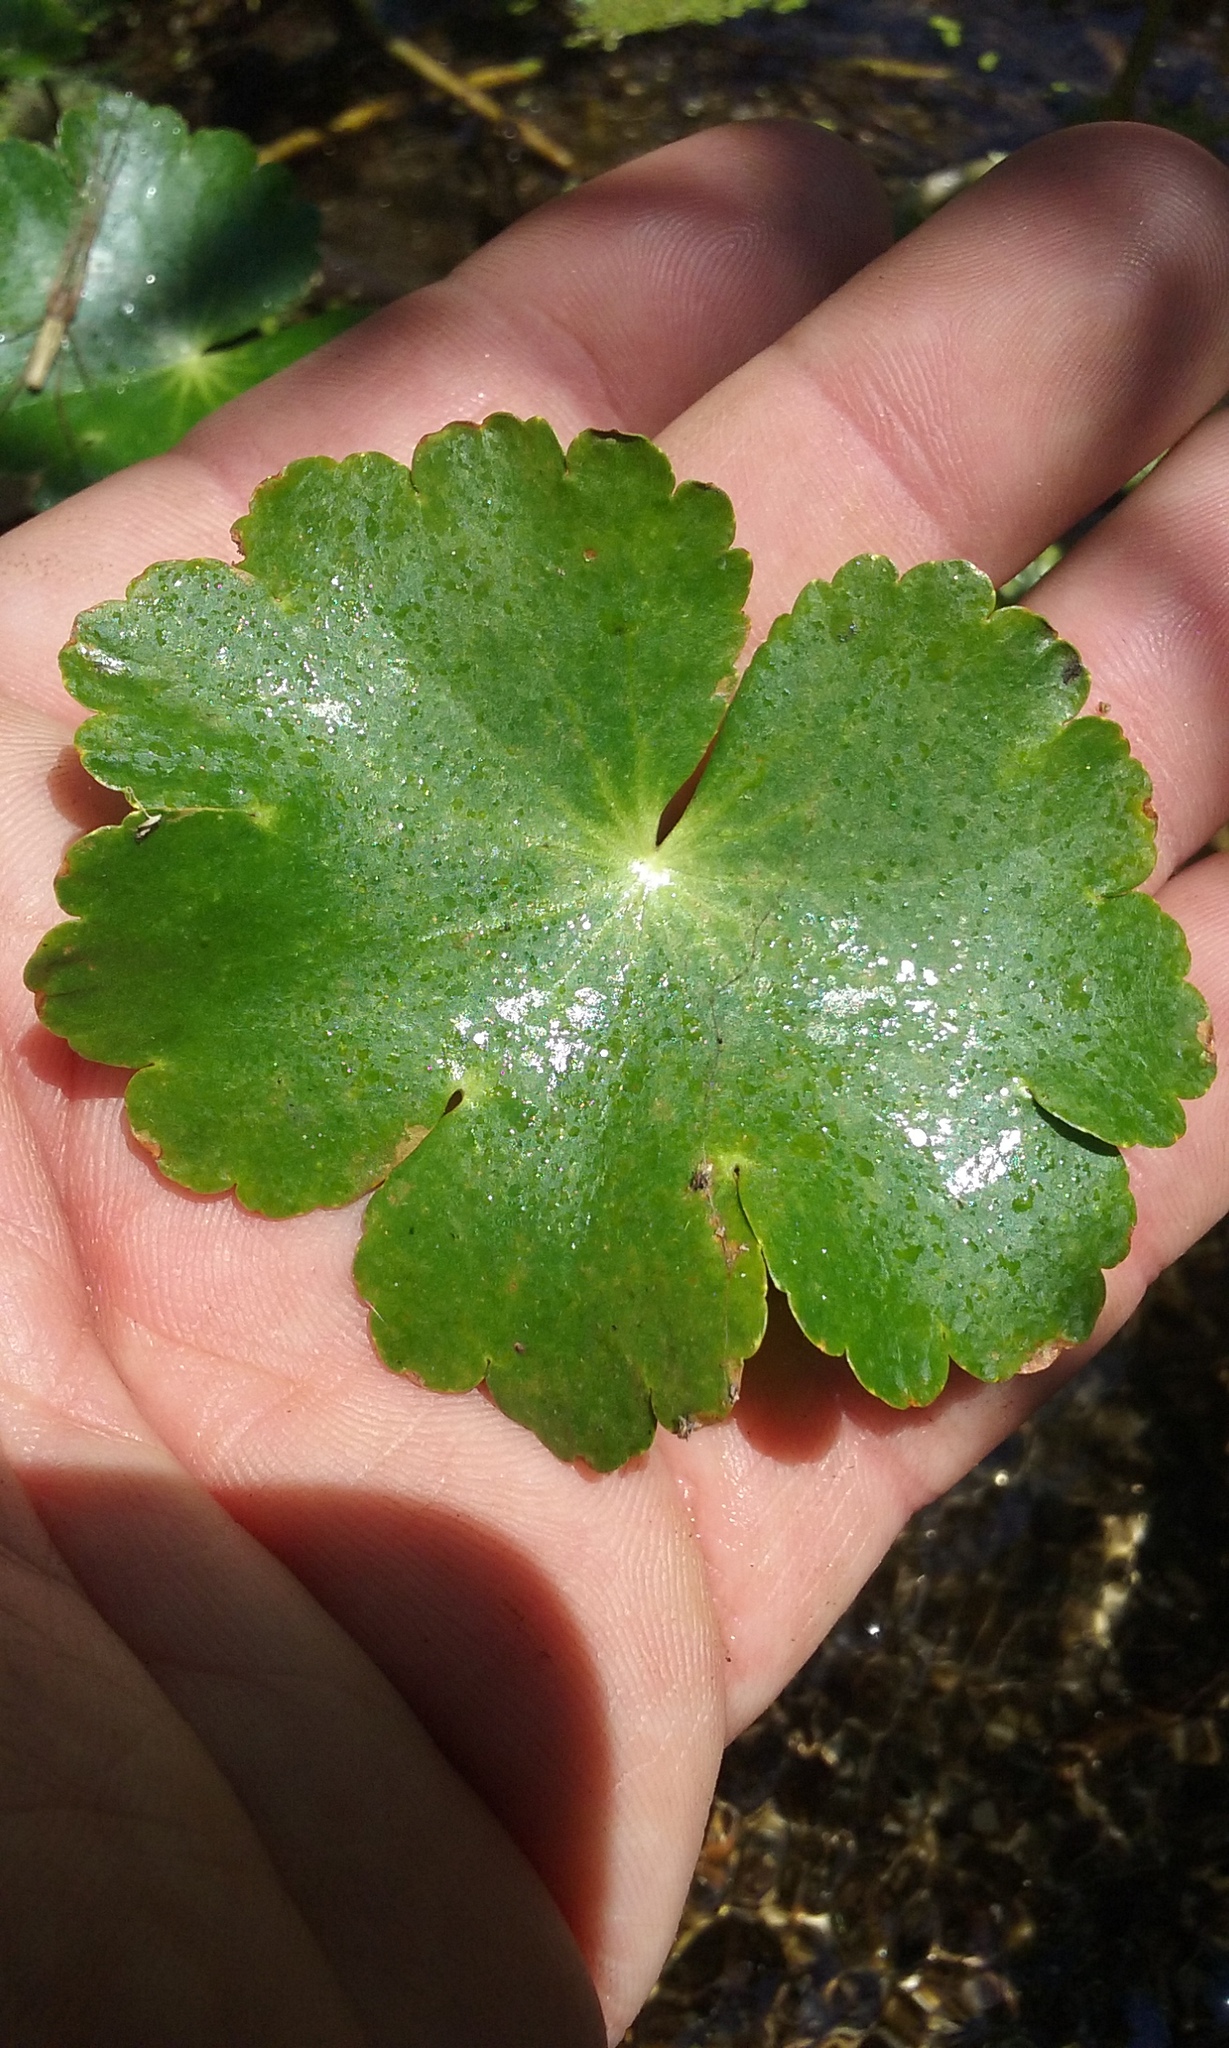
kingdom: Plantae
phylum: Tracheophyta
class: Magnoliopsida
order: Apiales
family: Araliaceae
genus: Hydrocotyle
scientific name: Hydrocotyle ranunculoides
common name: Floating pennywort
